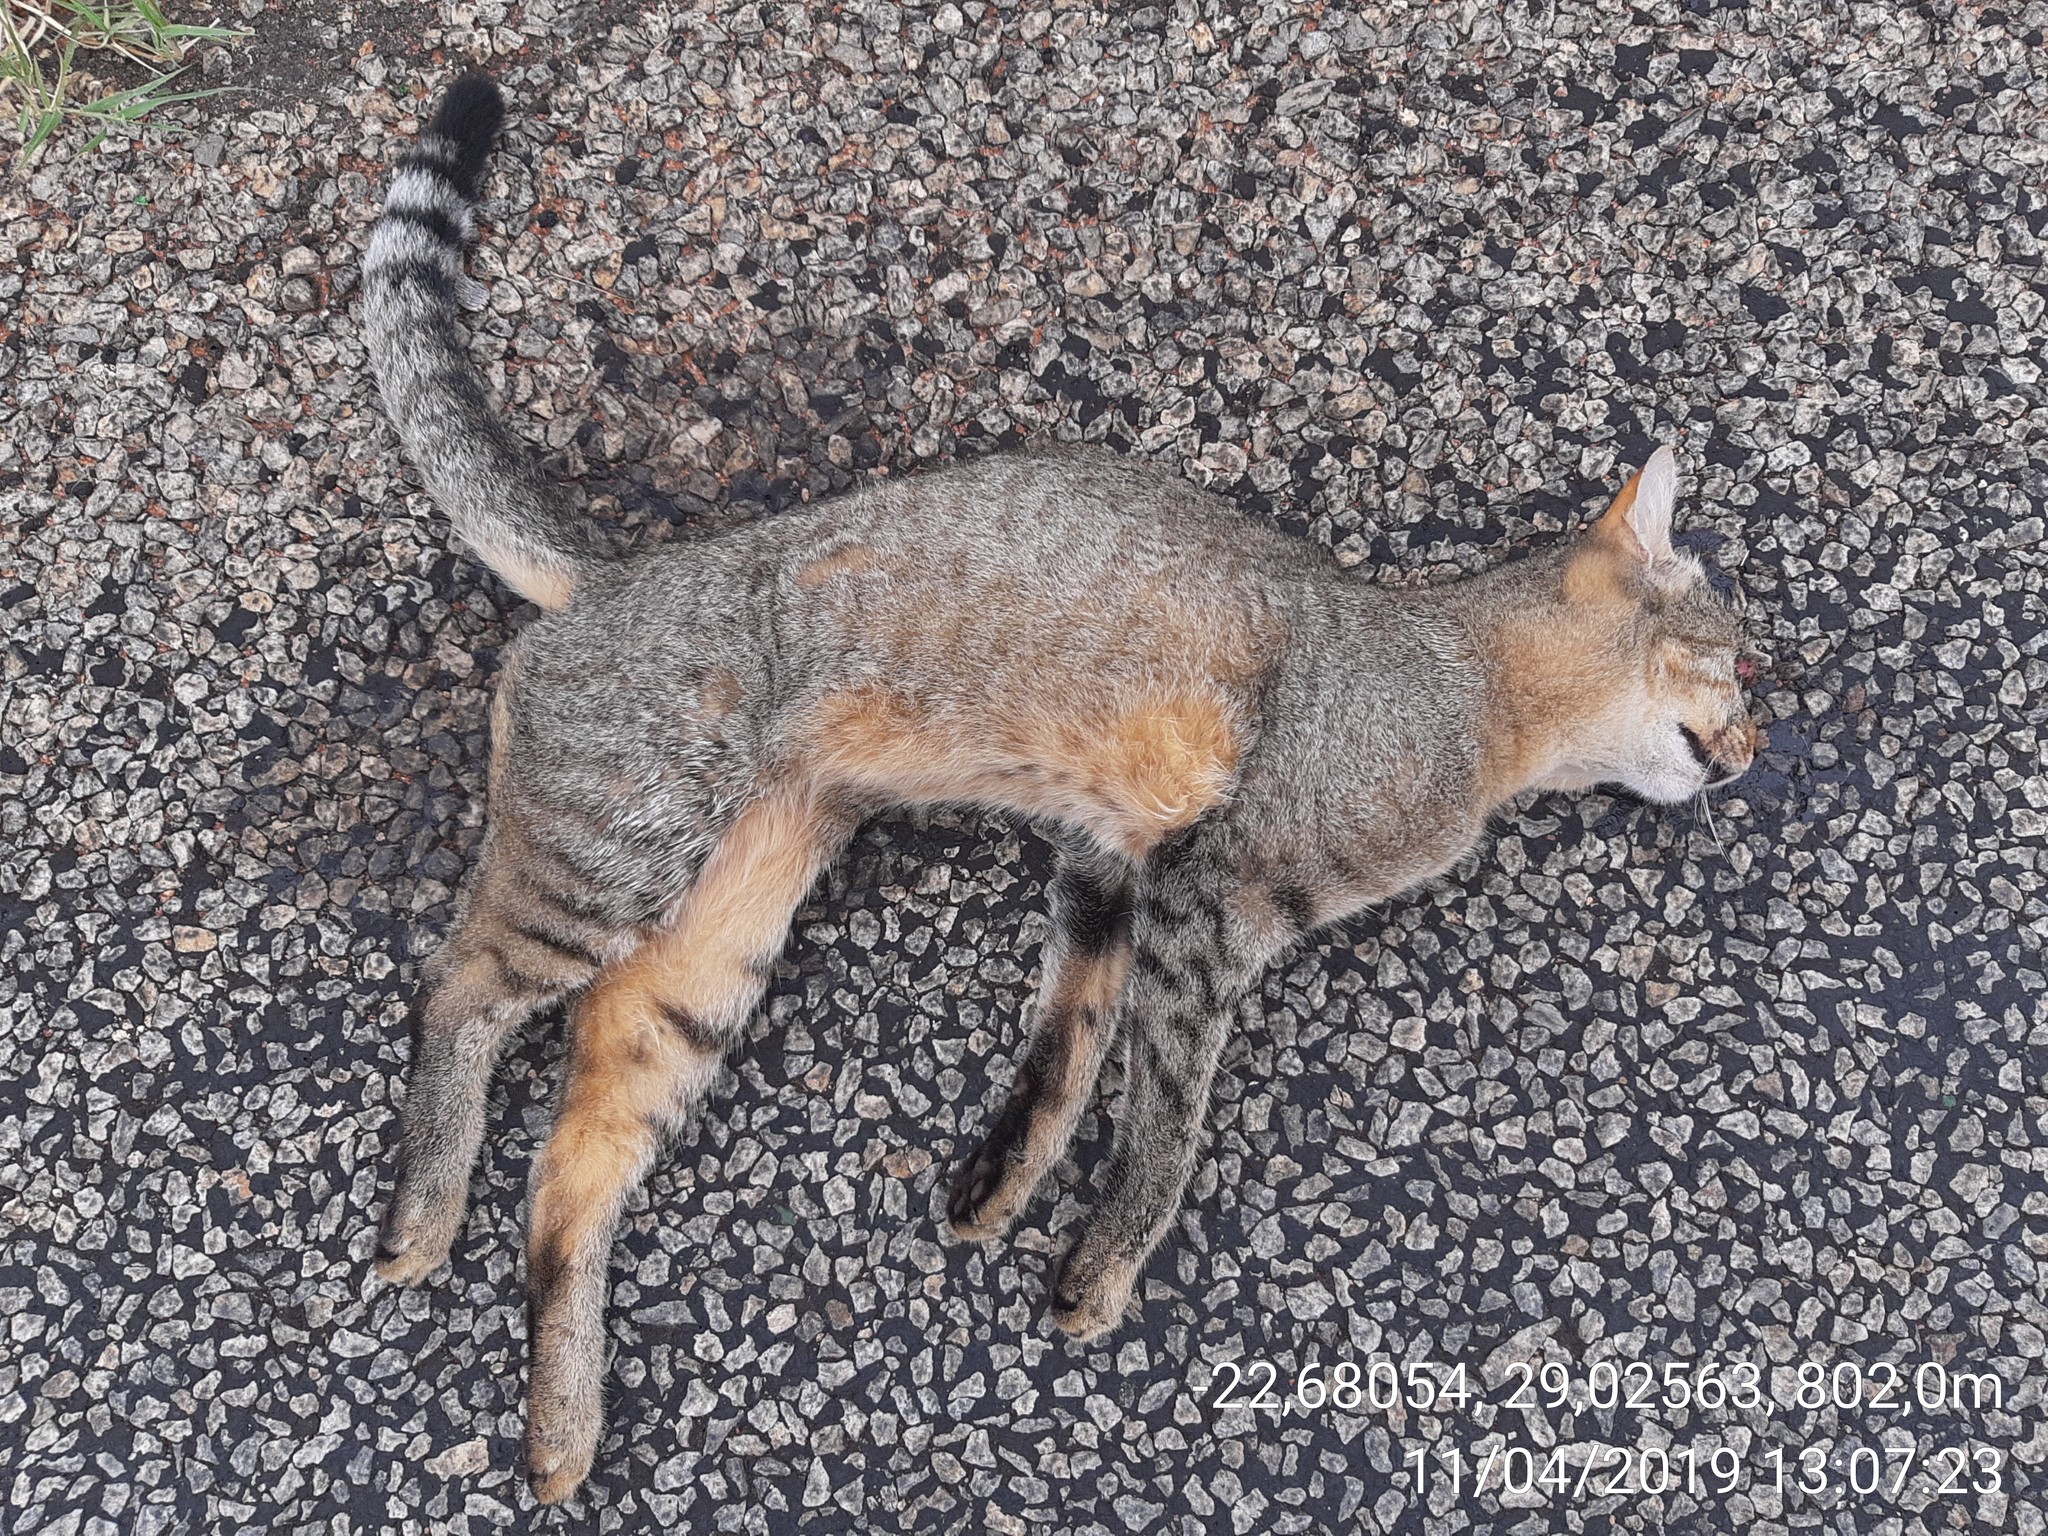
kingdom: Animalia
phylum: Chordata
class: Mammalia
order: Carnivora
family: Felidae
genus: Felis
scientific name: Felis silvestris
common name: Wildcat
